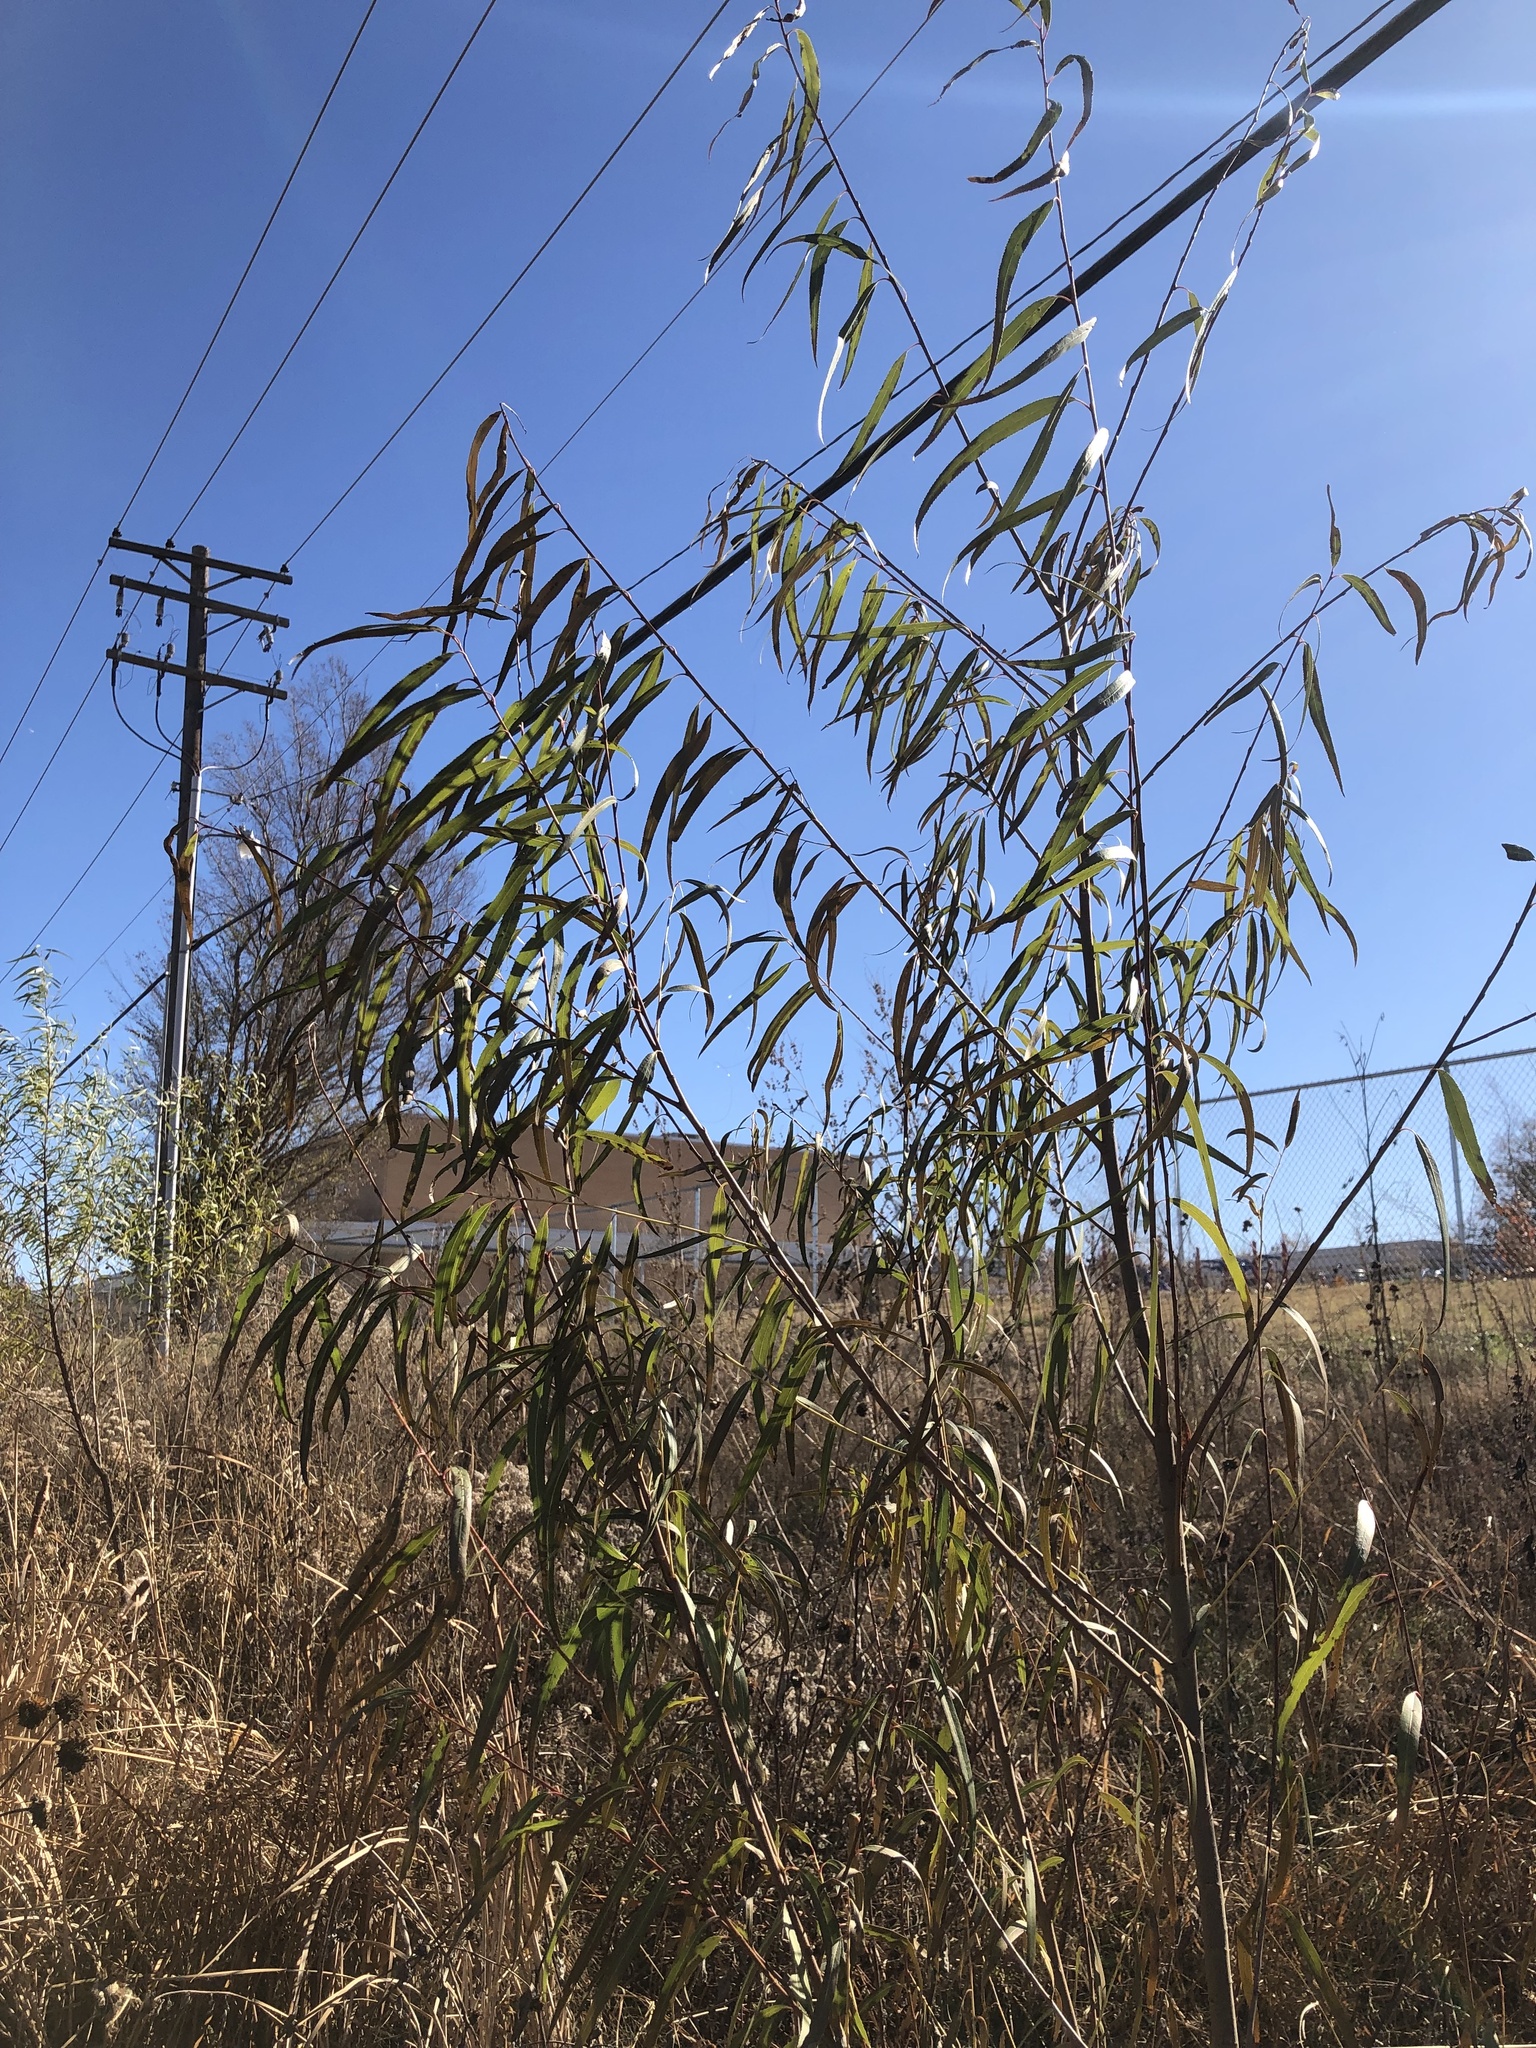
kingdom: Plantae
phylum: Tracheophyta
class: Magnoliopsida
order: Malpighiales
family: Salicaceae
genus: Salix
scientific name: Salix nigra
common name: Black willow
